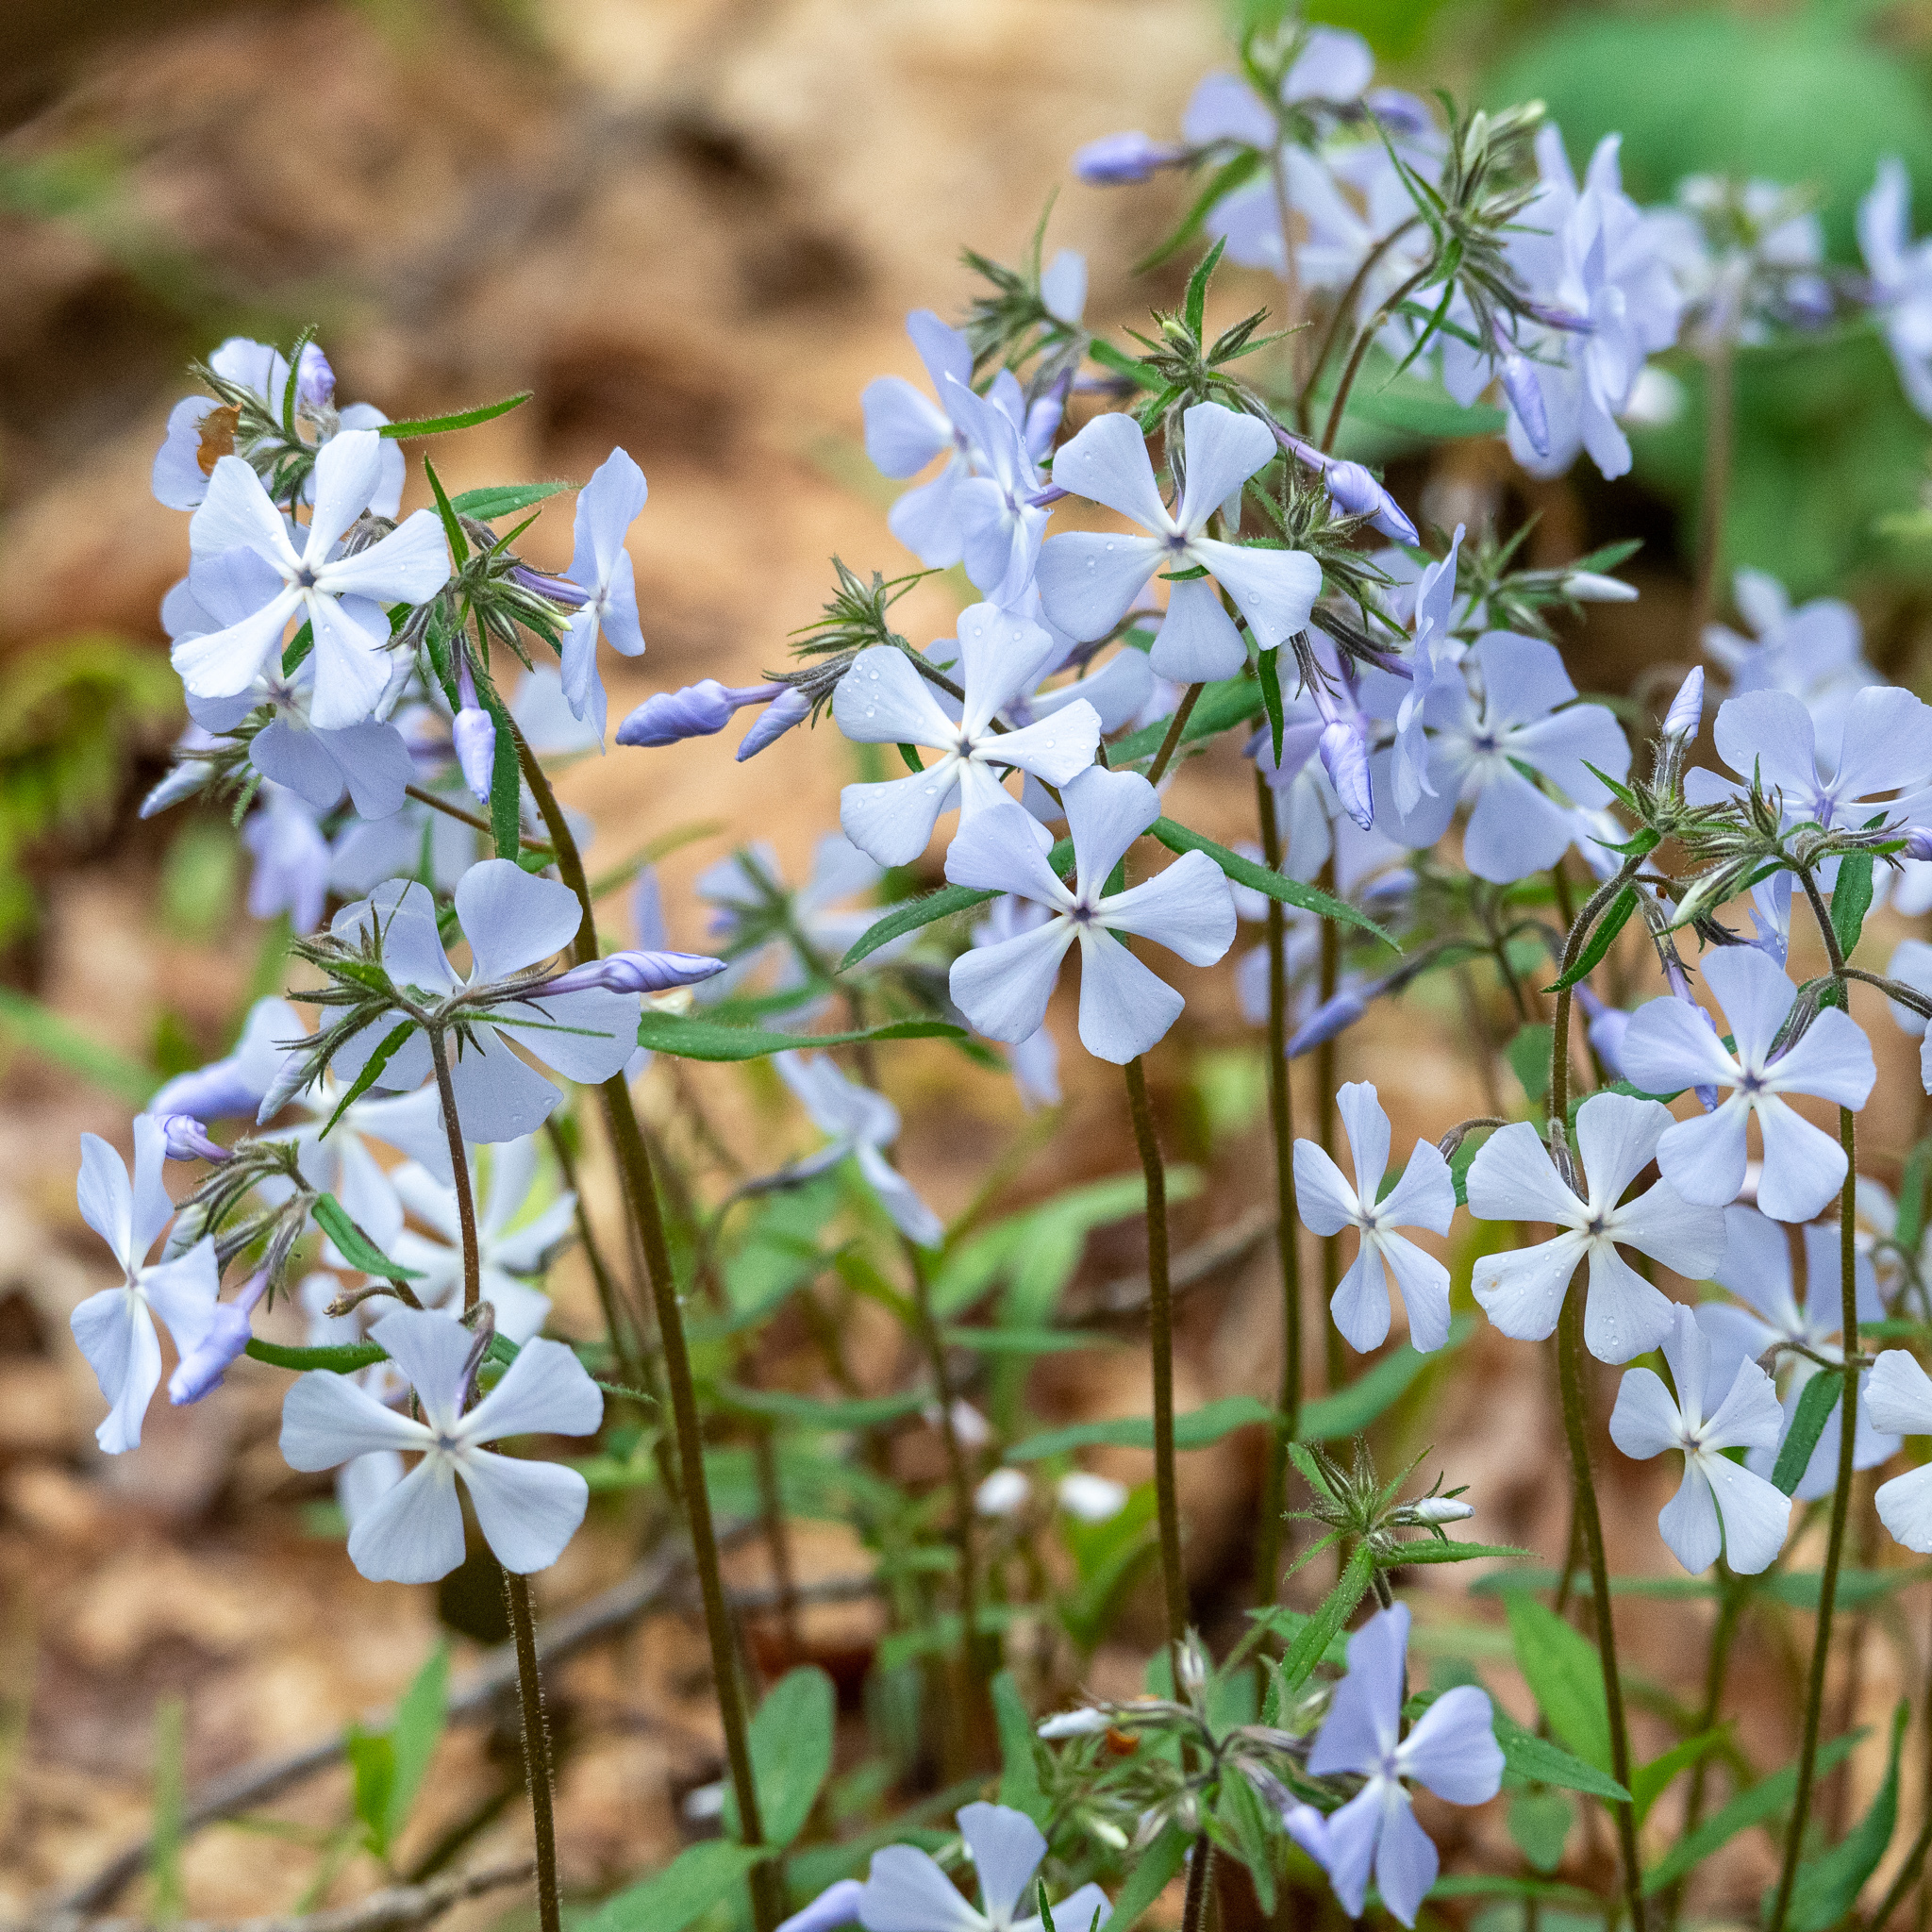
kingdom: Plantae
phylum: Tracheophyta
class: Magnoliopsida
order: Ericales
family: Polemoniaceae
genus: Phlox
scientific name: Phlox divaricata
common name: Blue phlox
